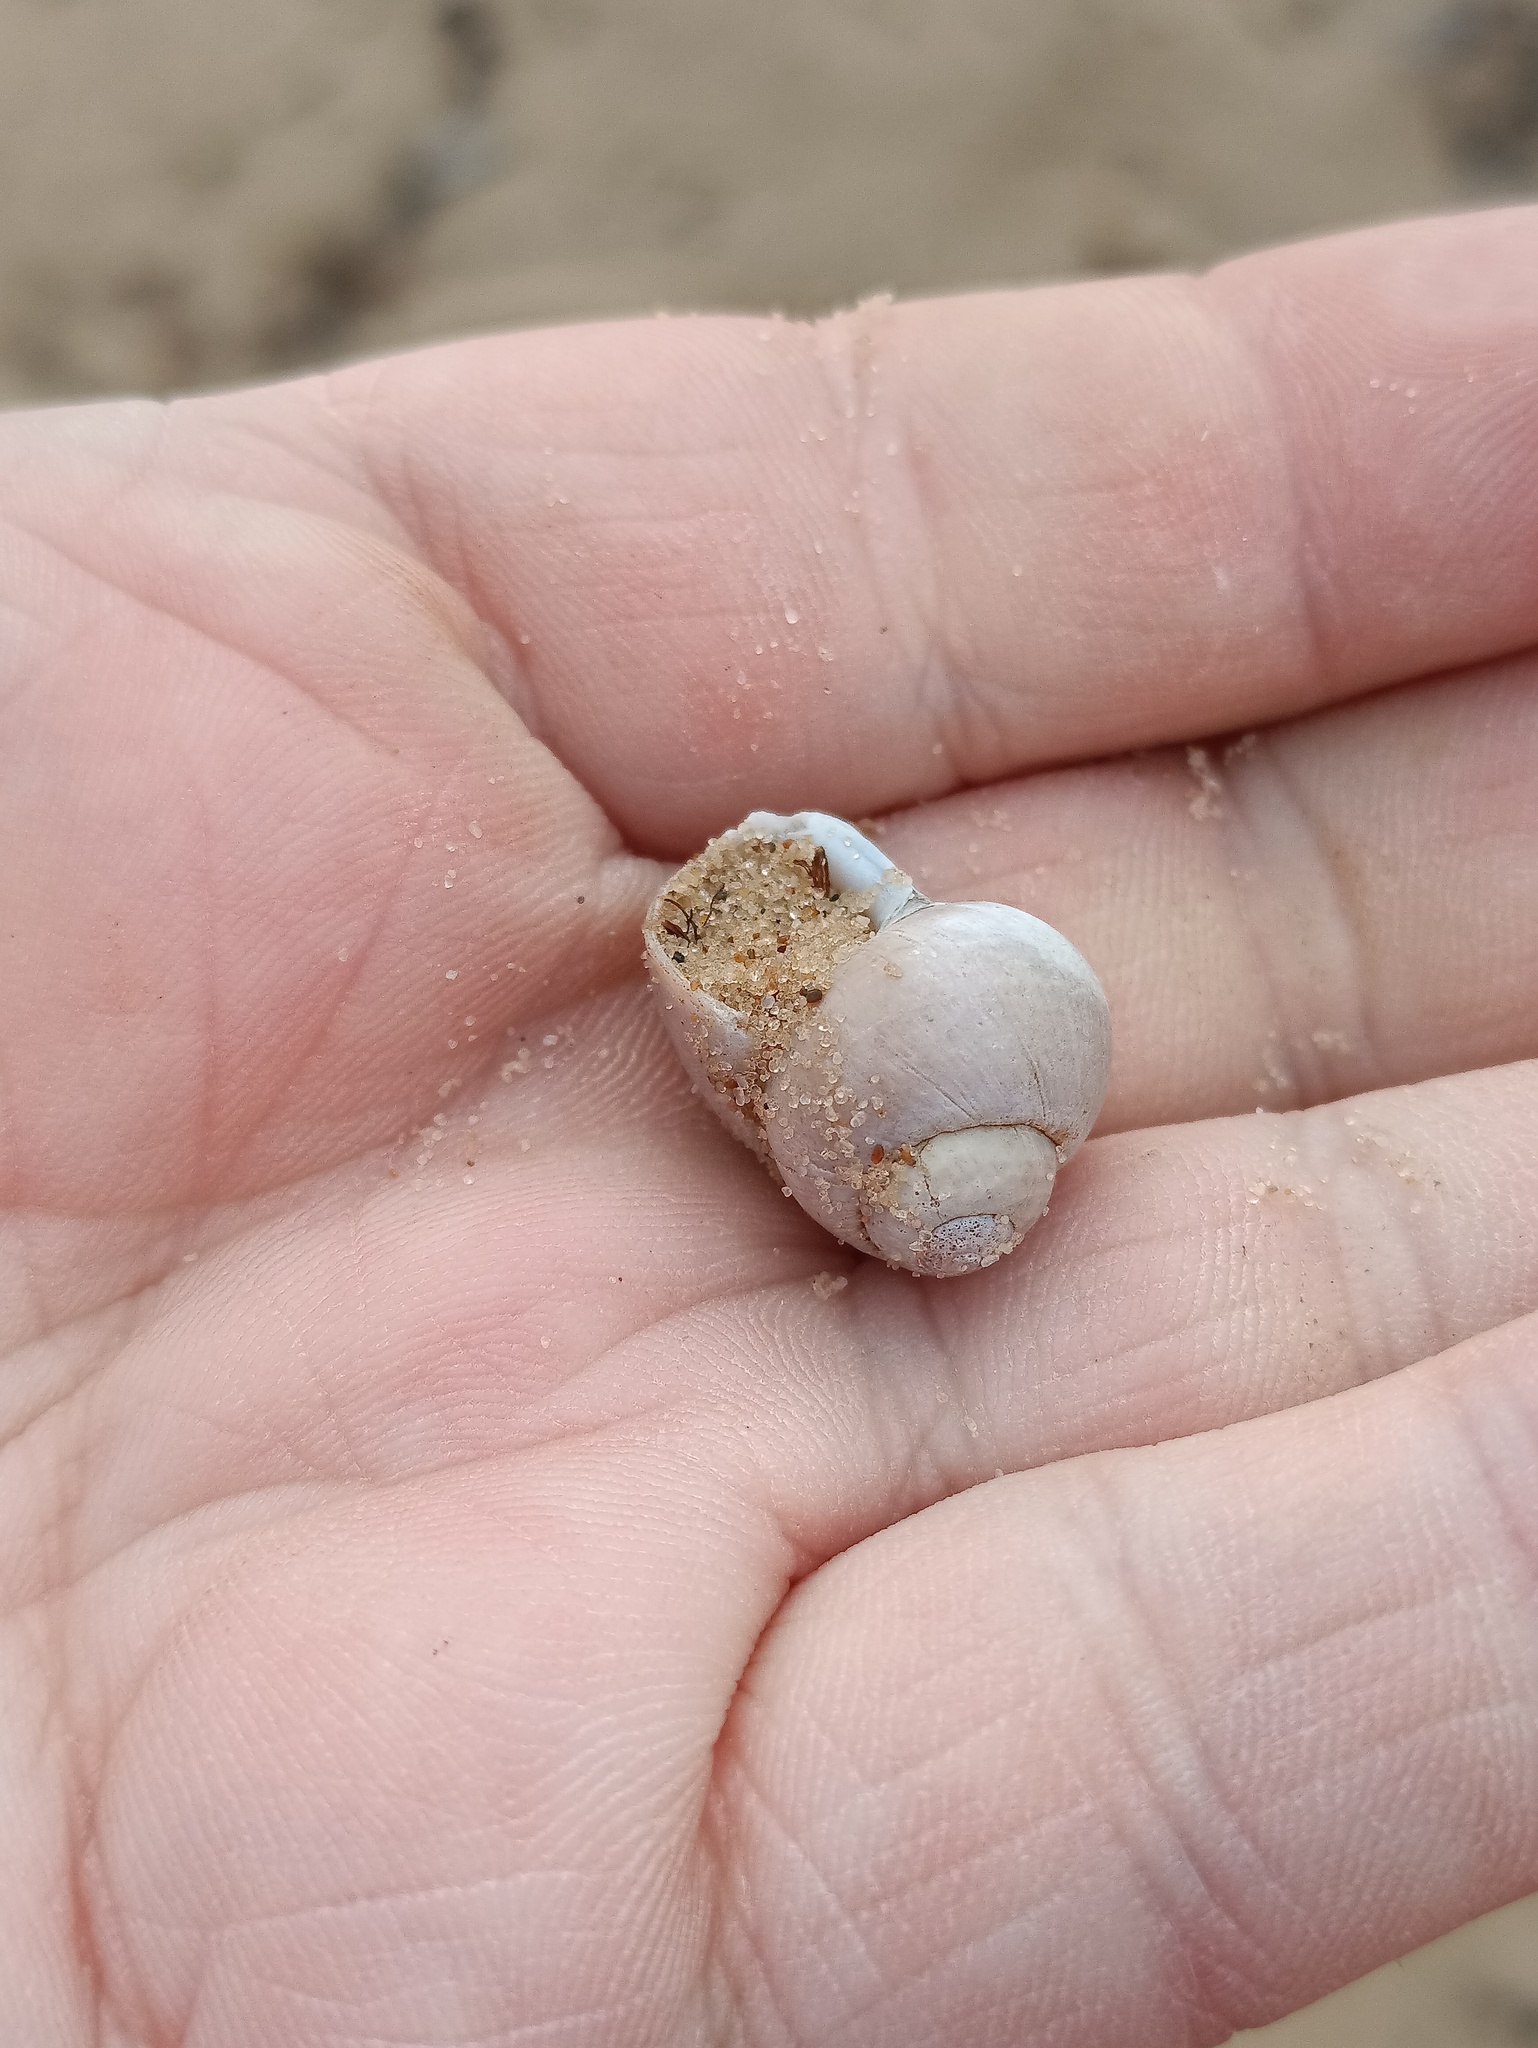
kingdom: Animalia
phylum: Mollusca
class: Gastropoda
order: Architaenioglossa
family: Viviparidae
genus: Viviparus
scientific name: Viviparus viviparus
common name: River snail
